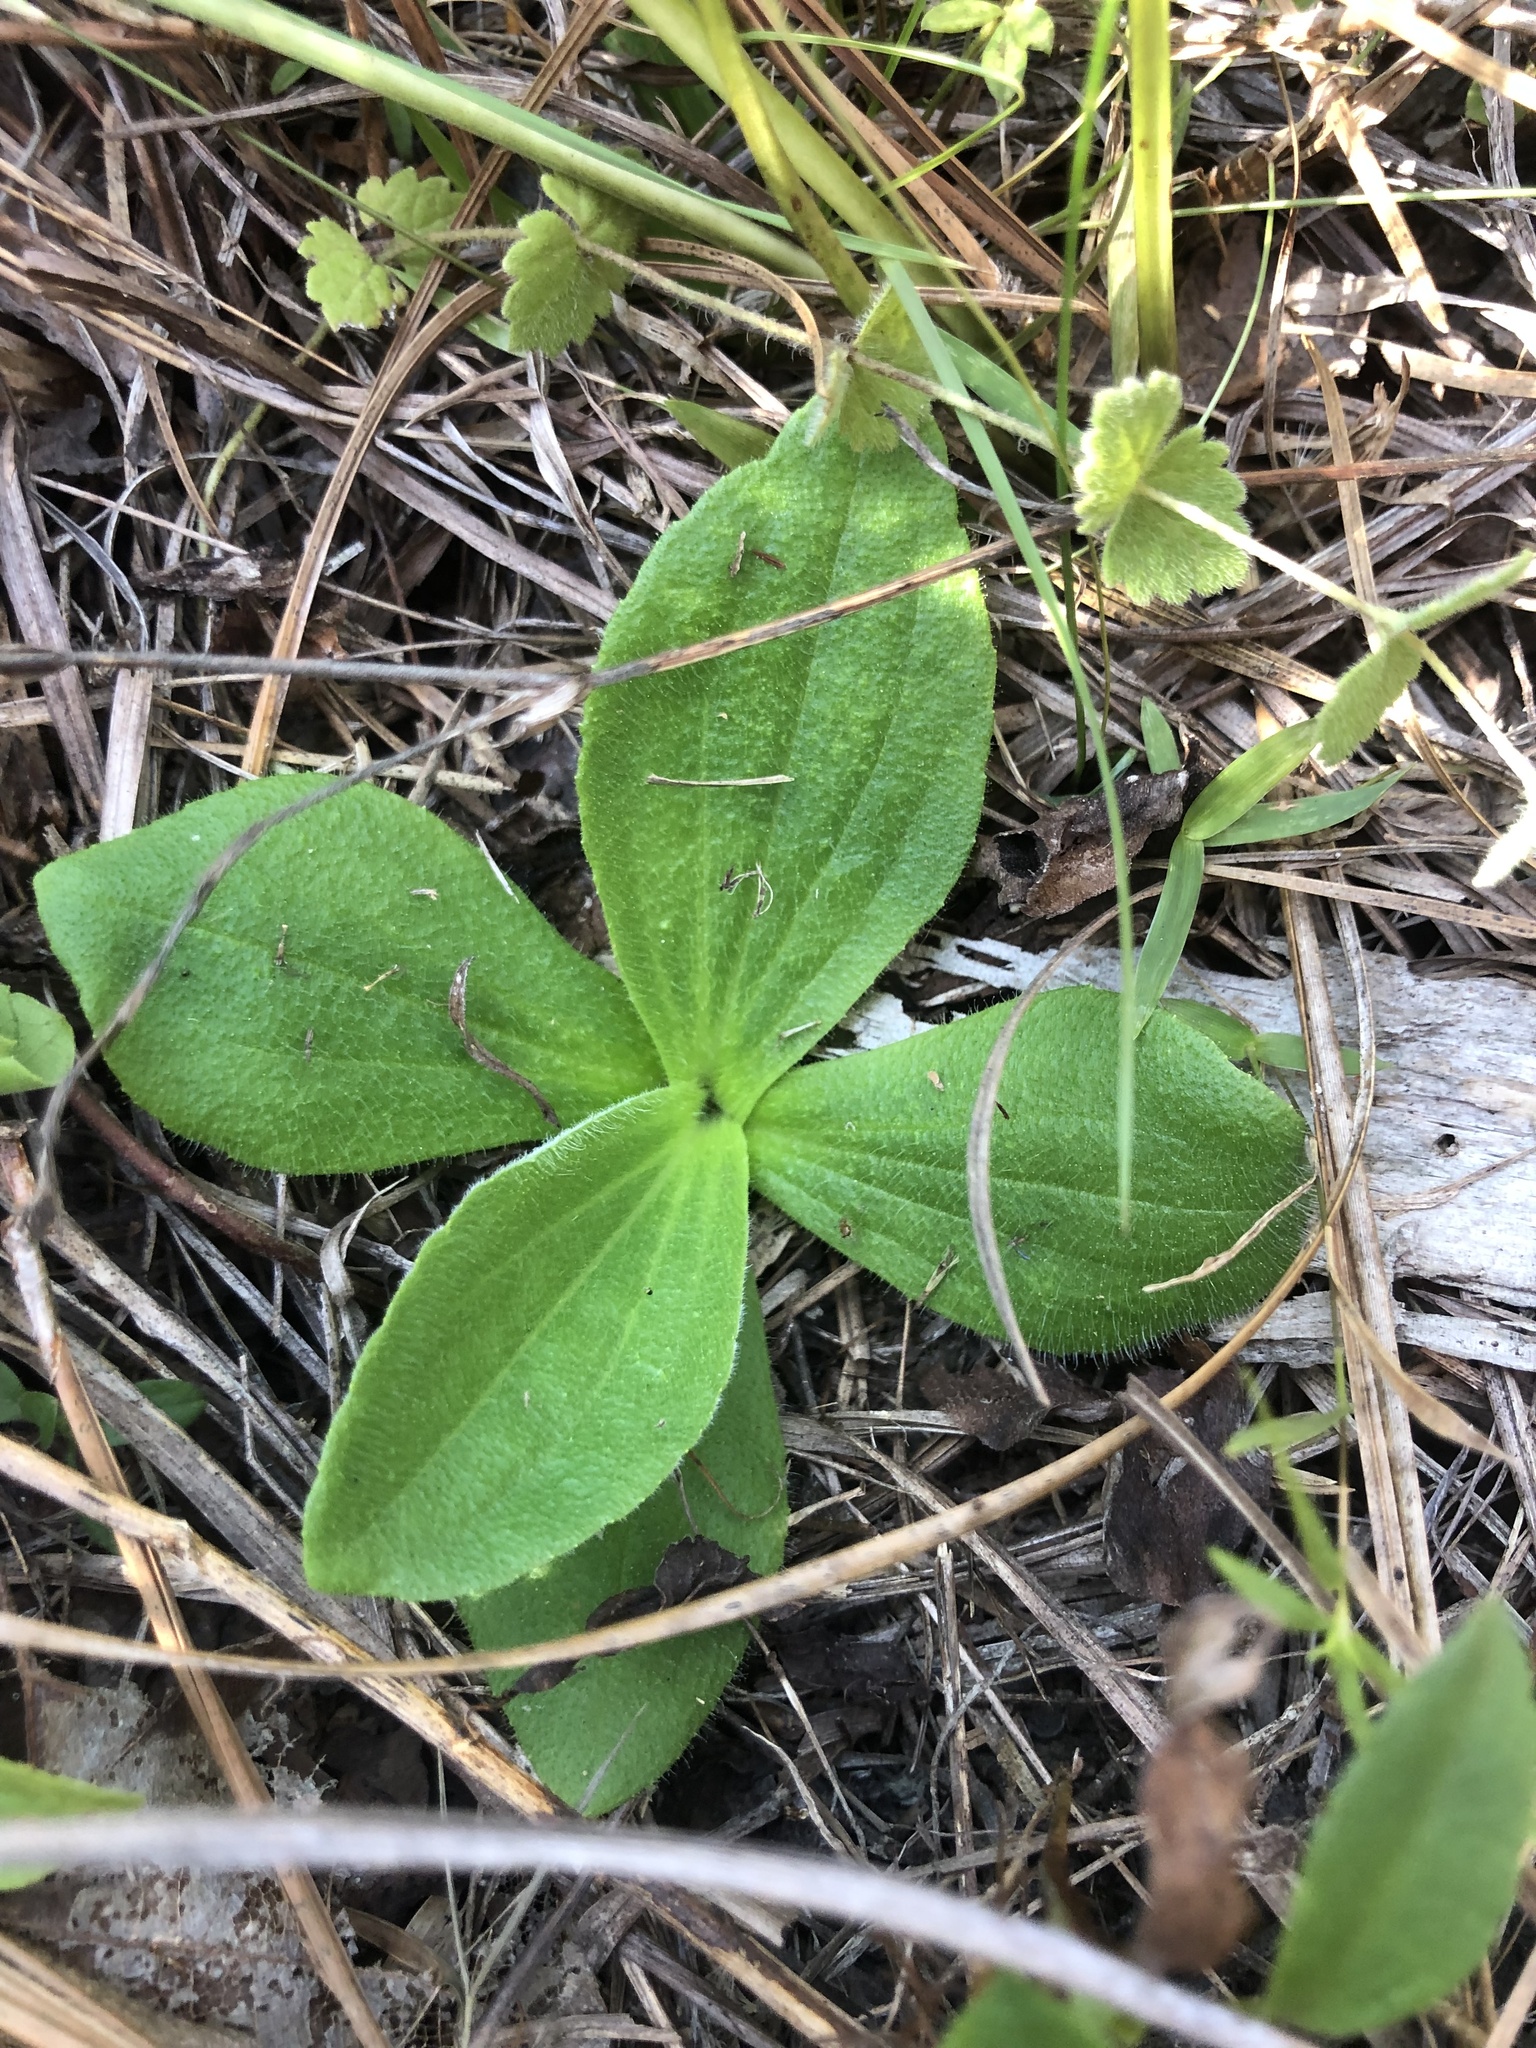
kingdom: Plantae
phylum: Tracheophyta
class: Magnoliopsida
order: Asterales
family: Asteraceae
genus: Arnica
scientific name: Arnica acaulis
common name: Common leopardbane
